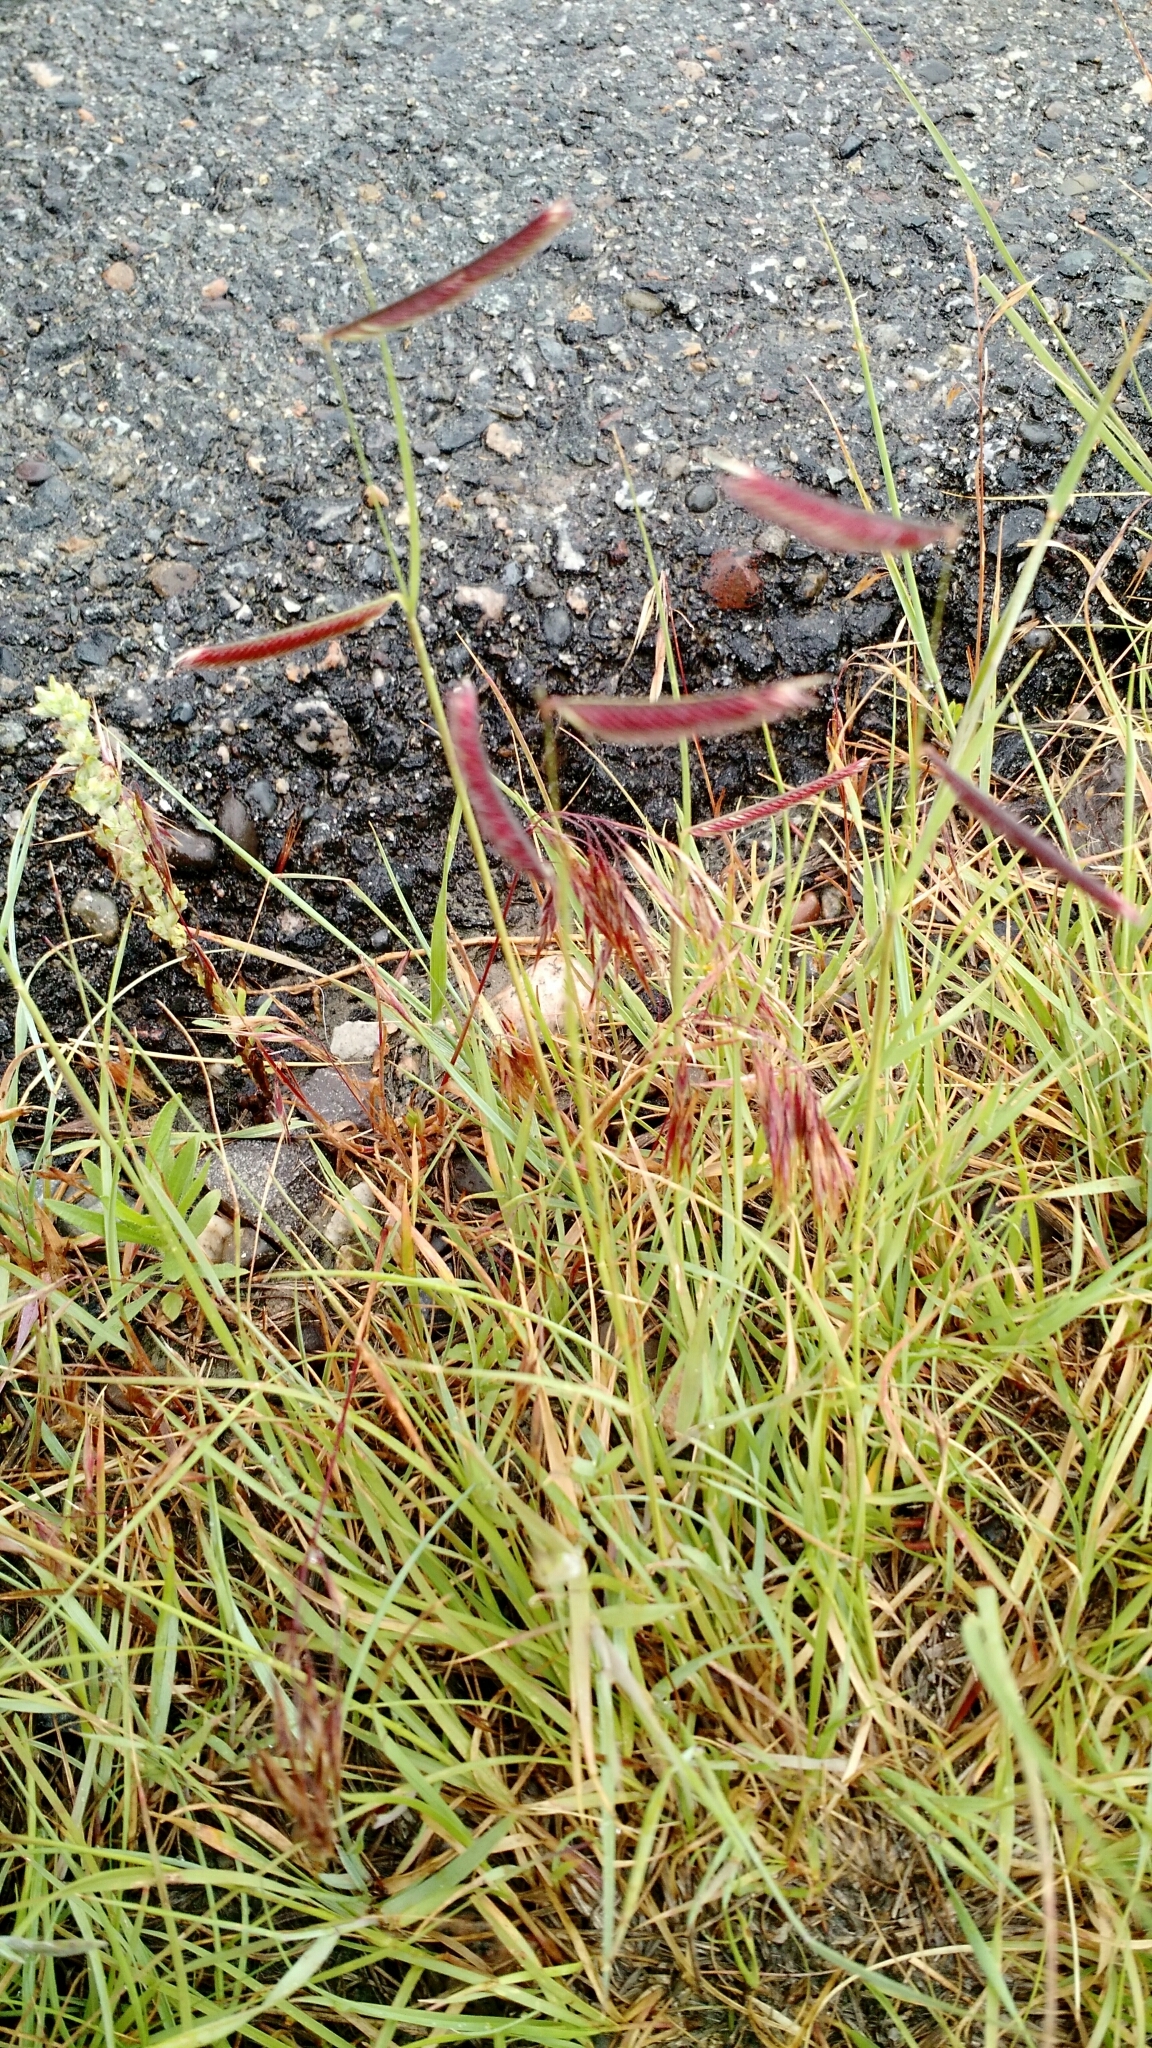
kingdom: Plantae
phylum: Tracheophyta
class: Liliopsida
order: Poales
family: Poaceae
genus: Bouteloua
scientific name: Bouteloua gracilis
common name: Blue grama
